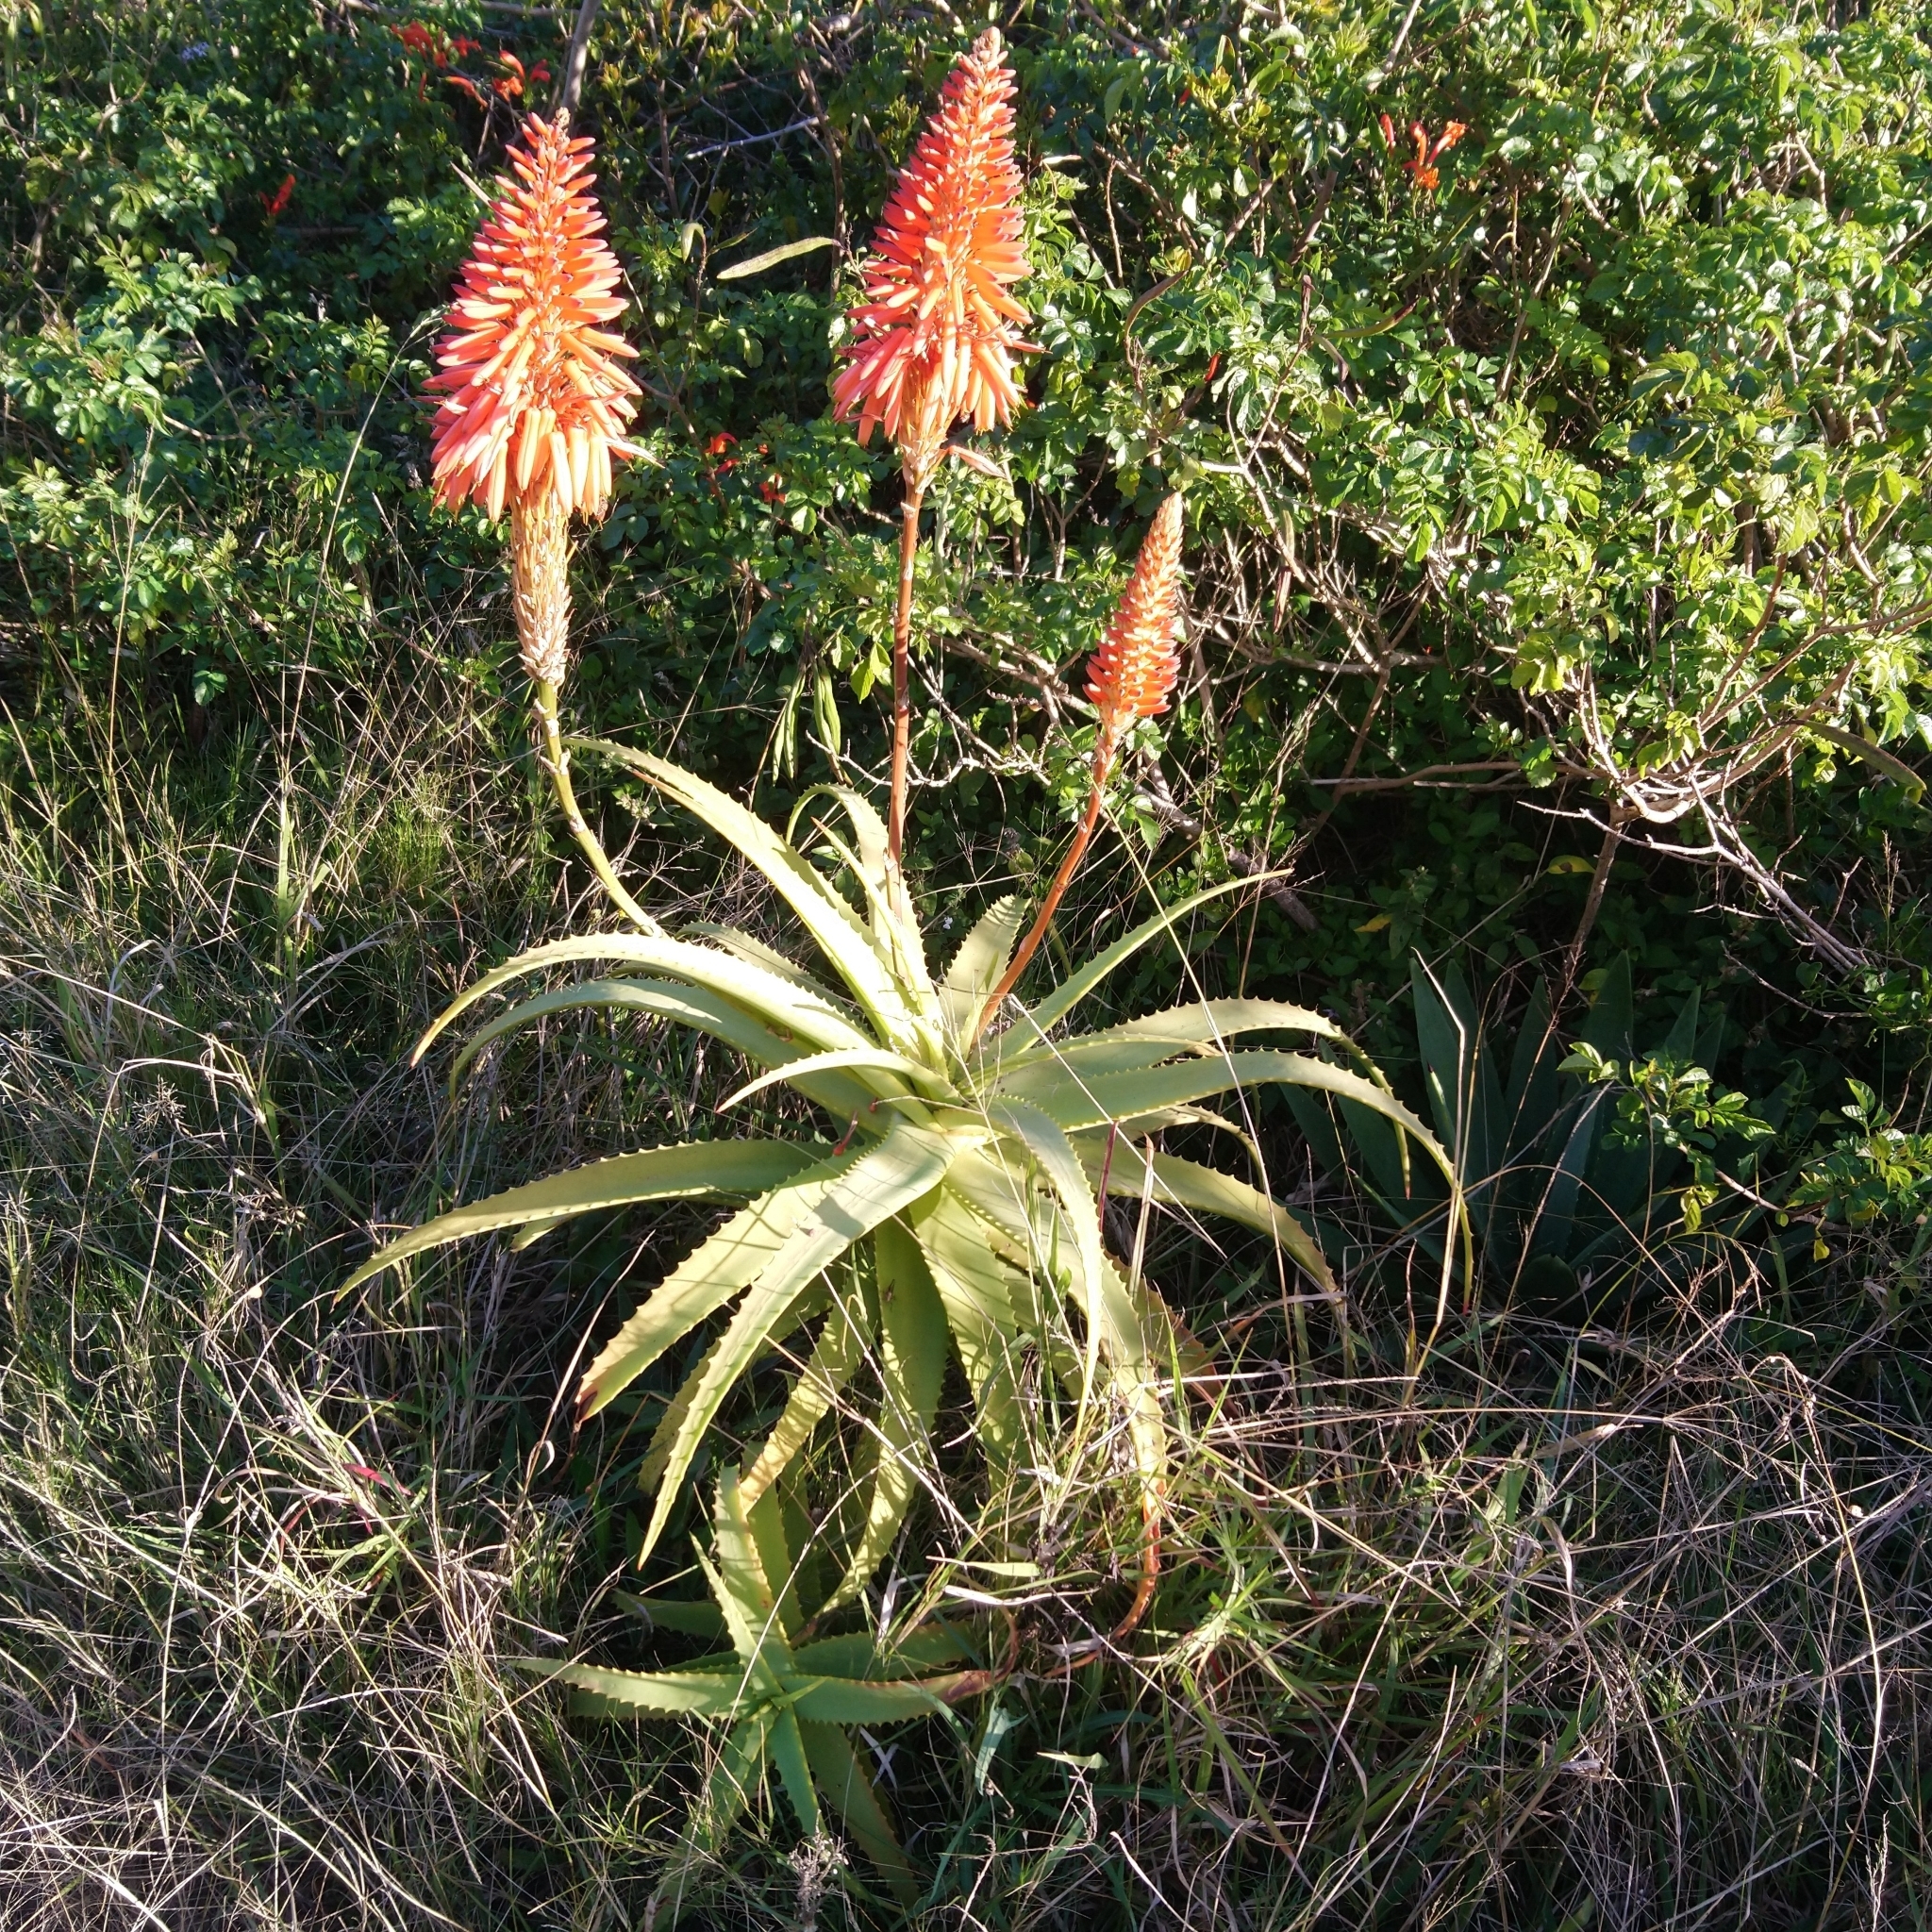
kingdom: Plantae
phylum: Tracheophyta
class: Liliopsida
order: Asparagales
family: Asphodelaceae
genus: Aloe
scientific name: Aloe arborescens
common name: Candelabra aloe
